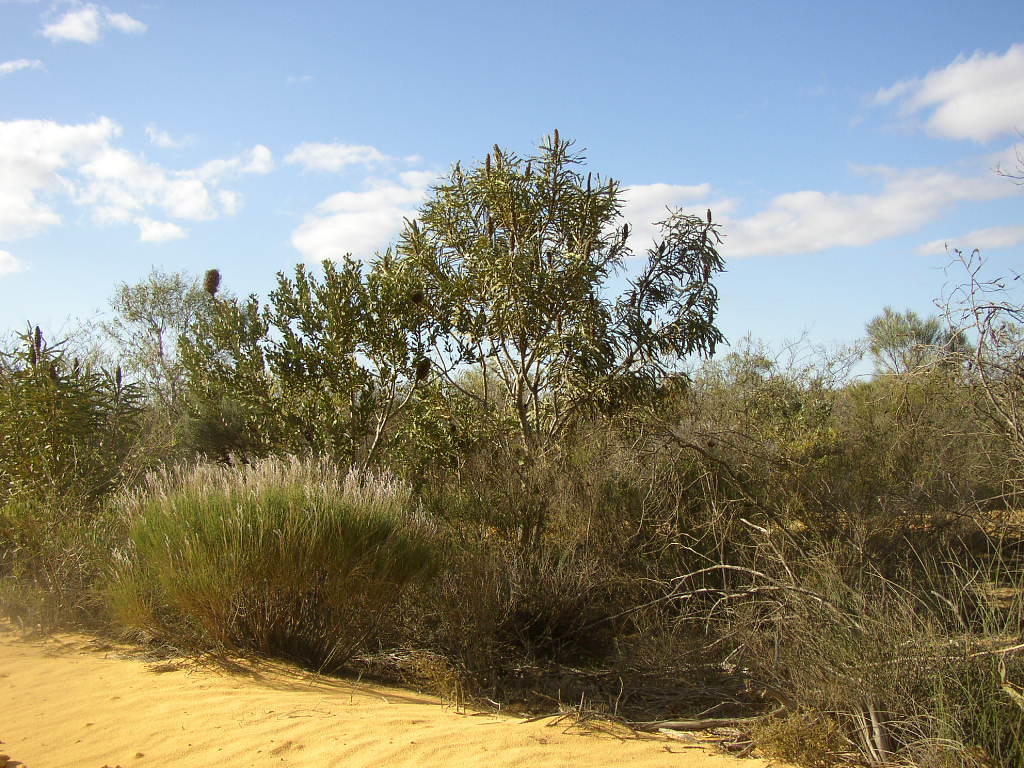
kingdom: Plantae
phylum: Tracheophyta
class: Magnoliopsida
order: Proteales
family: Proteaceae
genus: Banksia
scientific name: Banksia sceptrum
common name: Sceptre banksia
